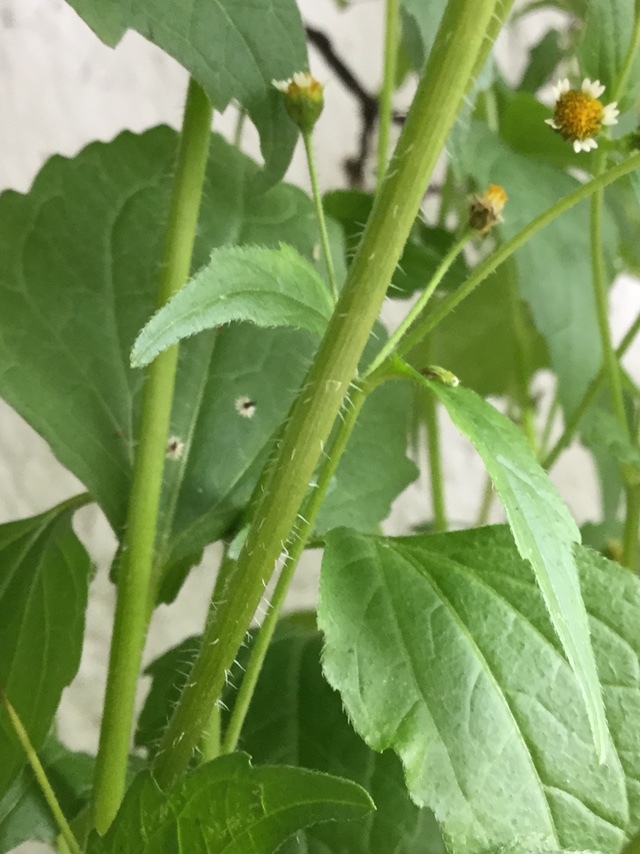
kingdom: Plantae
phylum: Tracheophyta
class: Magnoliopsida
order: Asterales
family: Asteraceae
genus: Galinsoga
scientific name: Galinsoga quadriradiata
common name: Shaggy soldier
